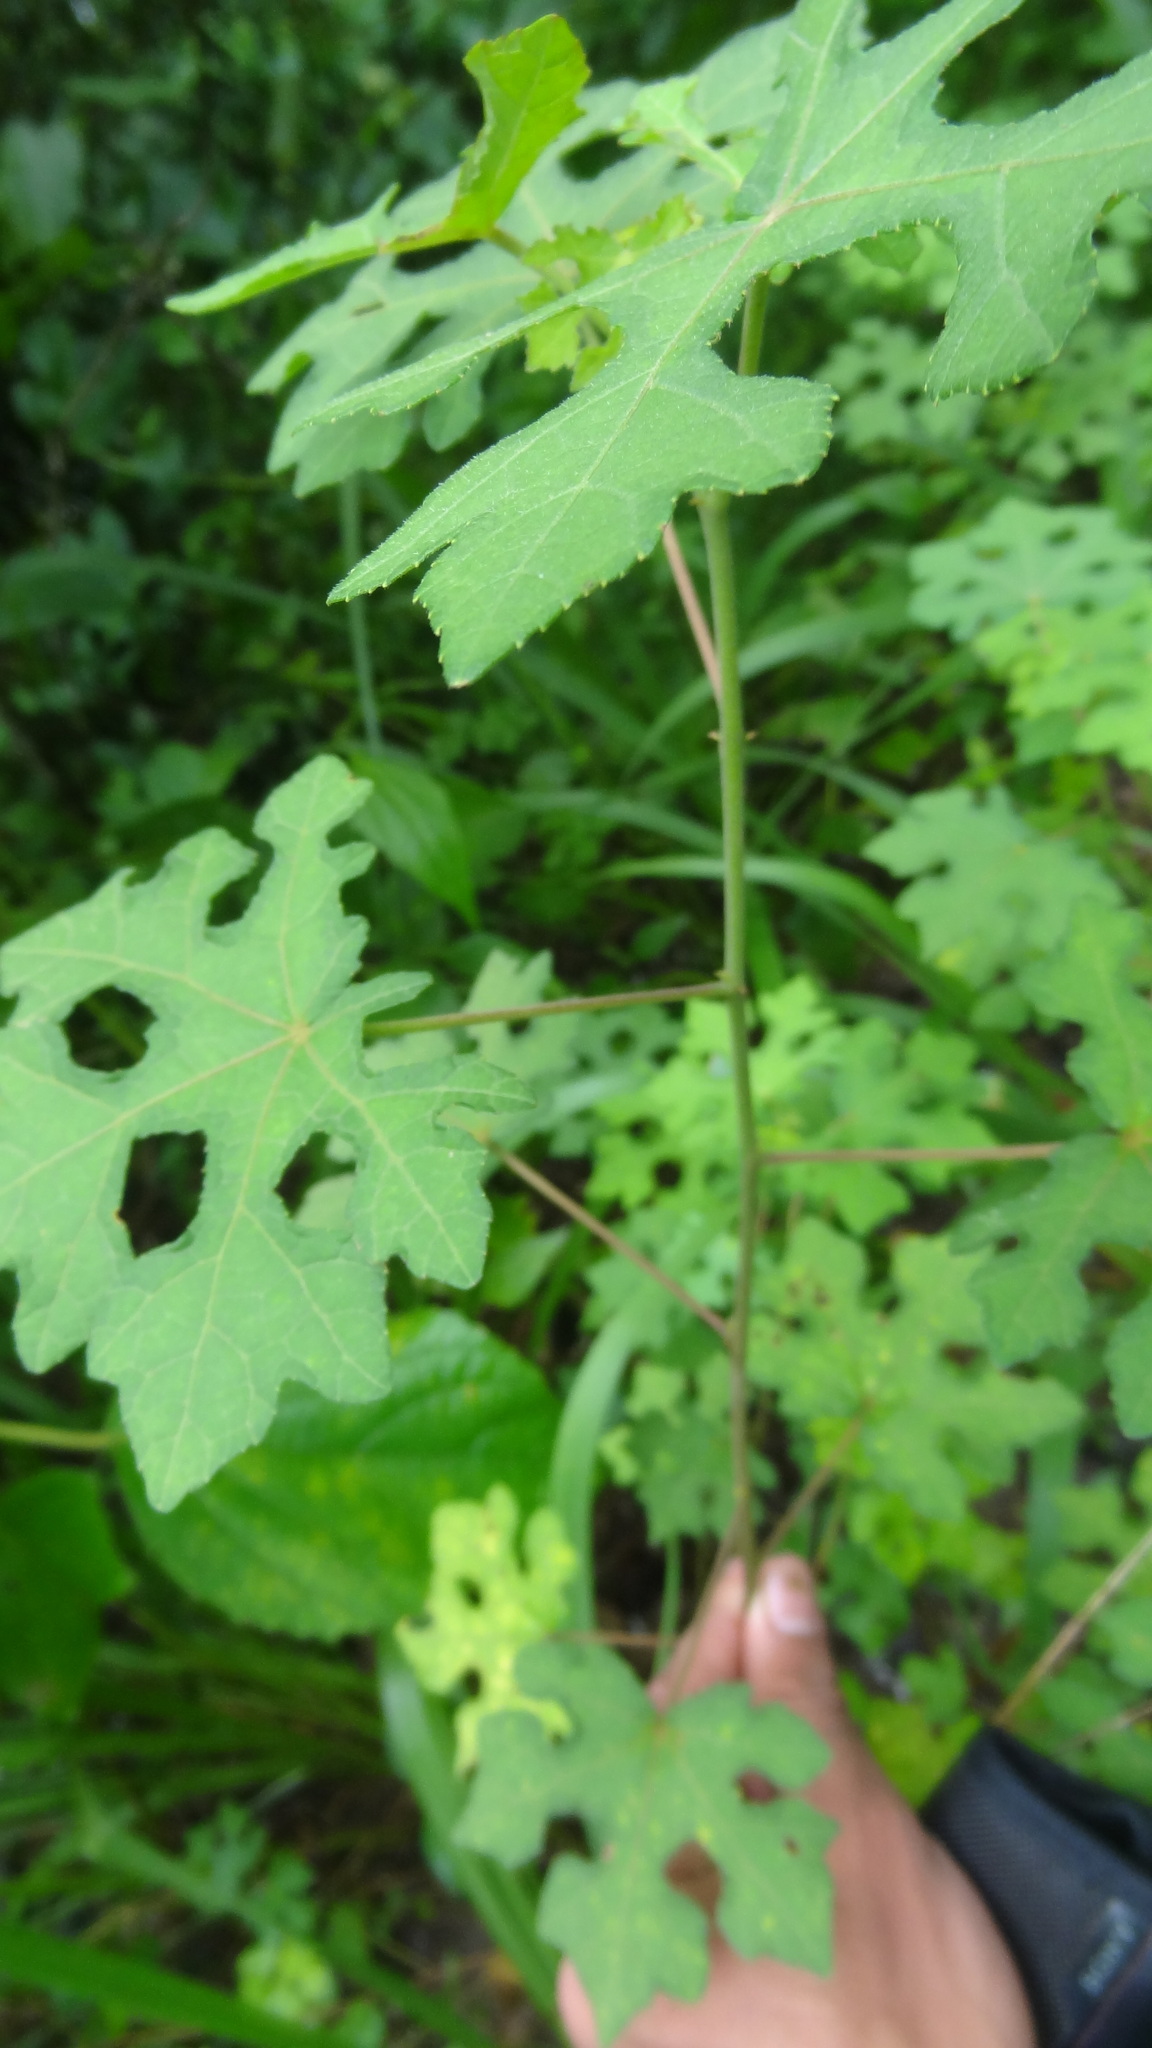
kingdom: Plantae
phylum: Tracheophyta
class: Magnoliopsida
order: Malvales
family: Malvaceae
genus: Urena
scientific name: Urena procumbens
